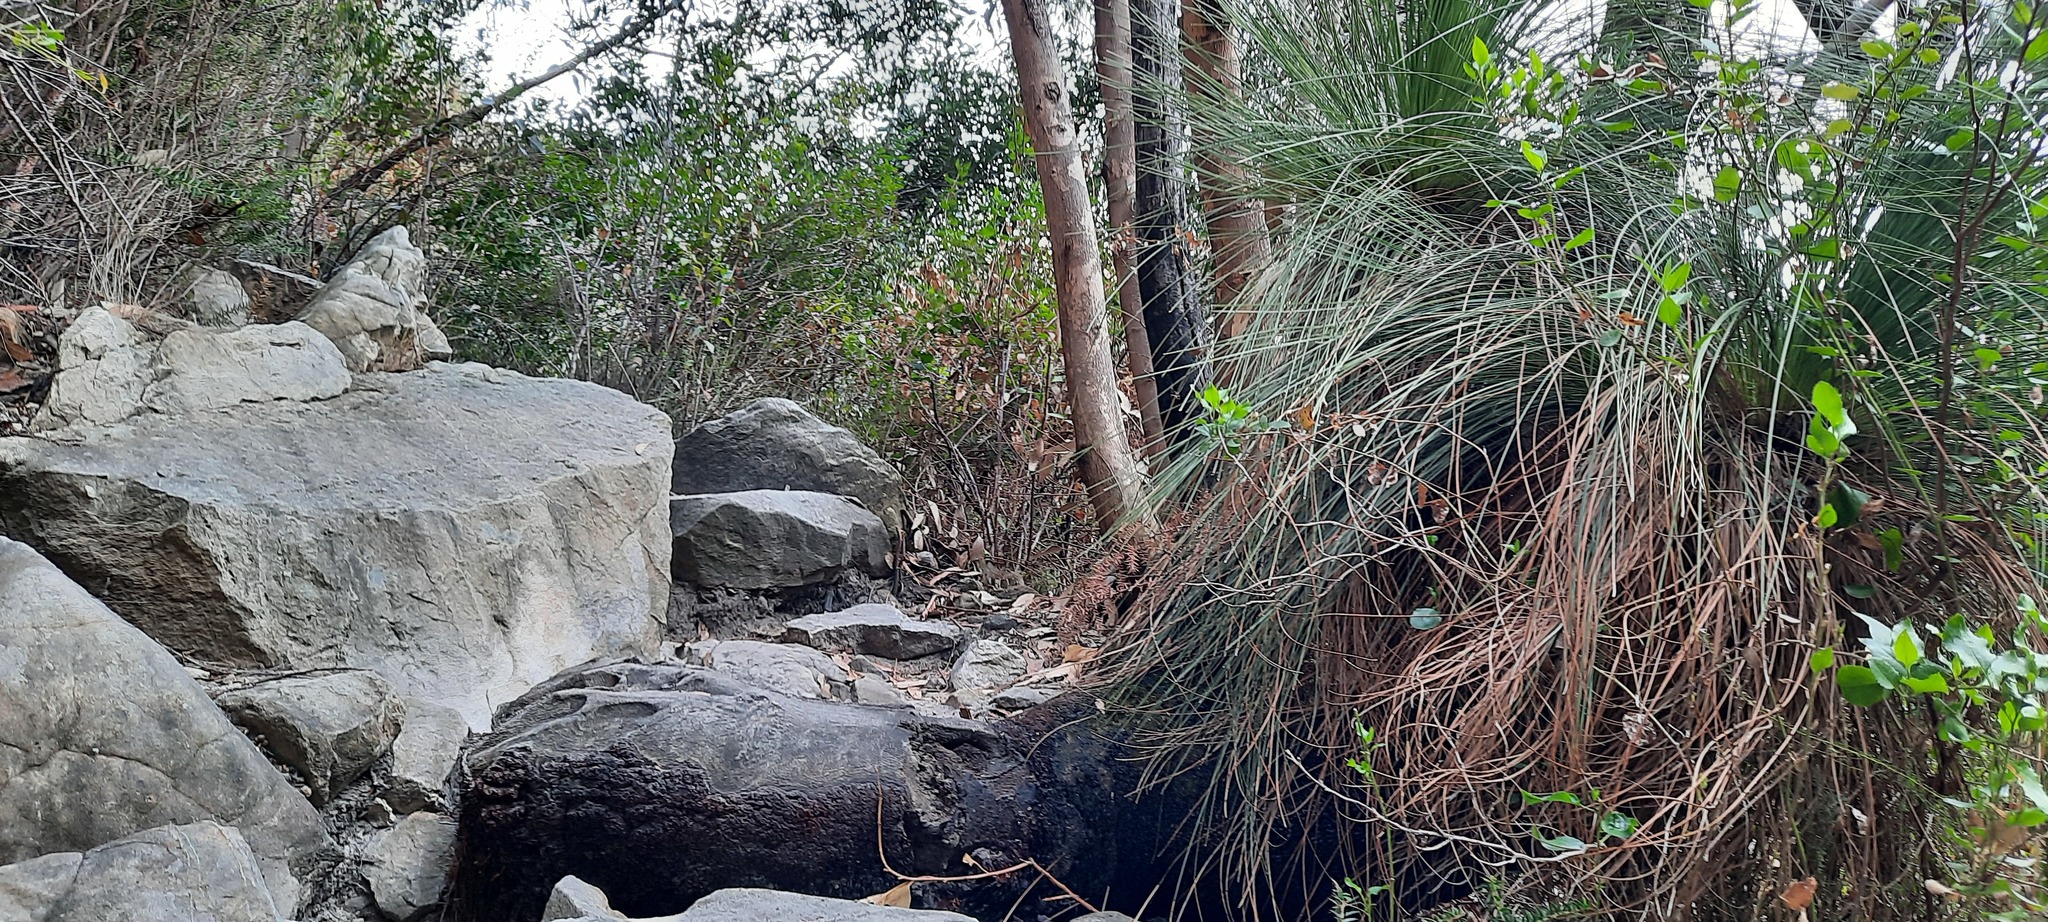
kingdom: Plantae
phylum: Tracheophyta
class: Liliopsida
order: Asparagales
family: Asphodelaceae
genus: Xanthorrhoea
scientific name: Xanthorrhoea australis
